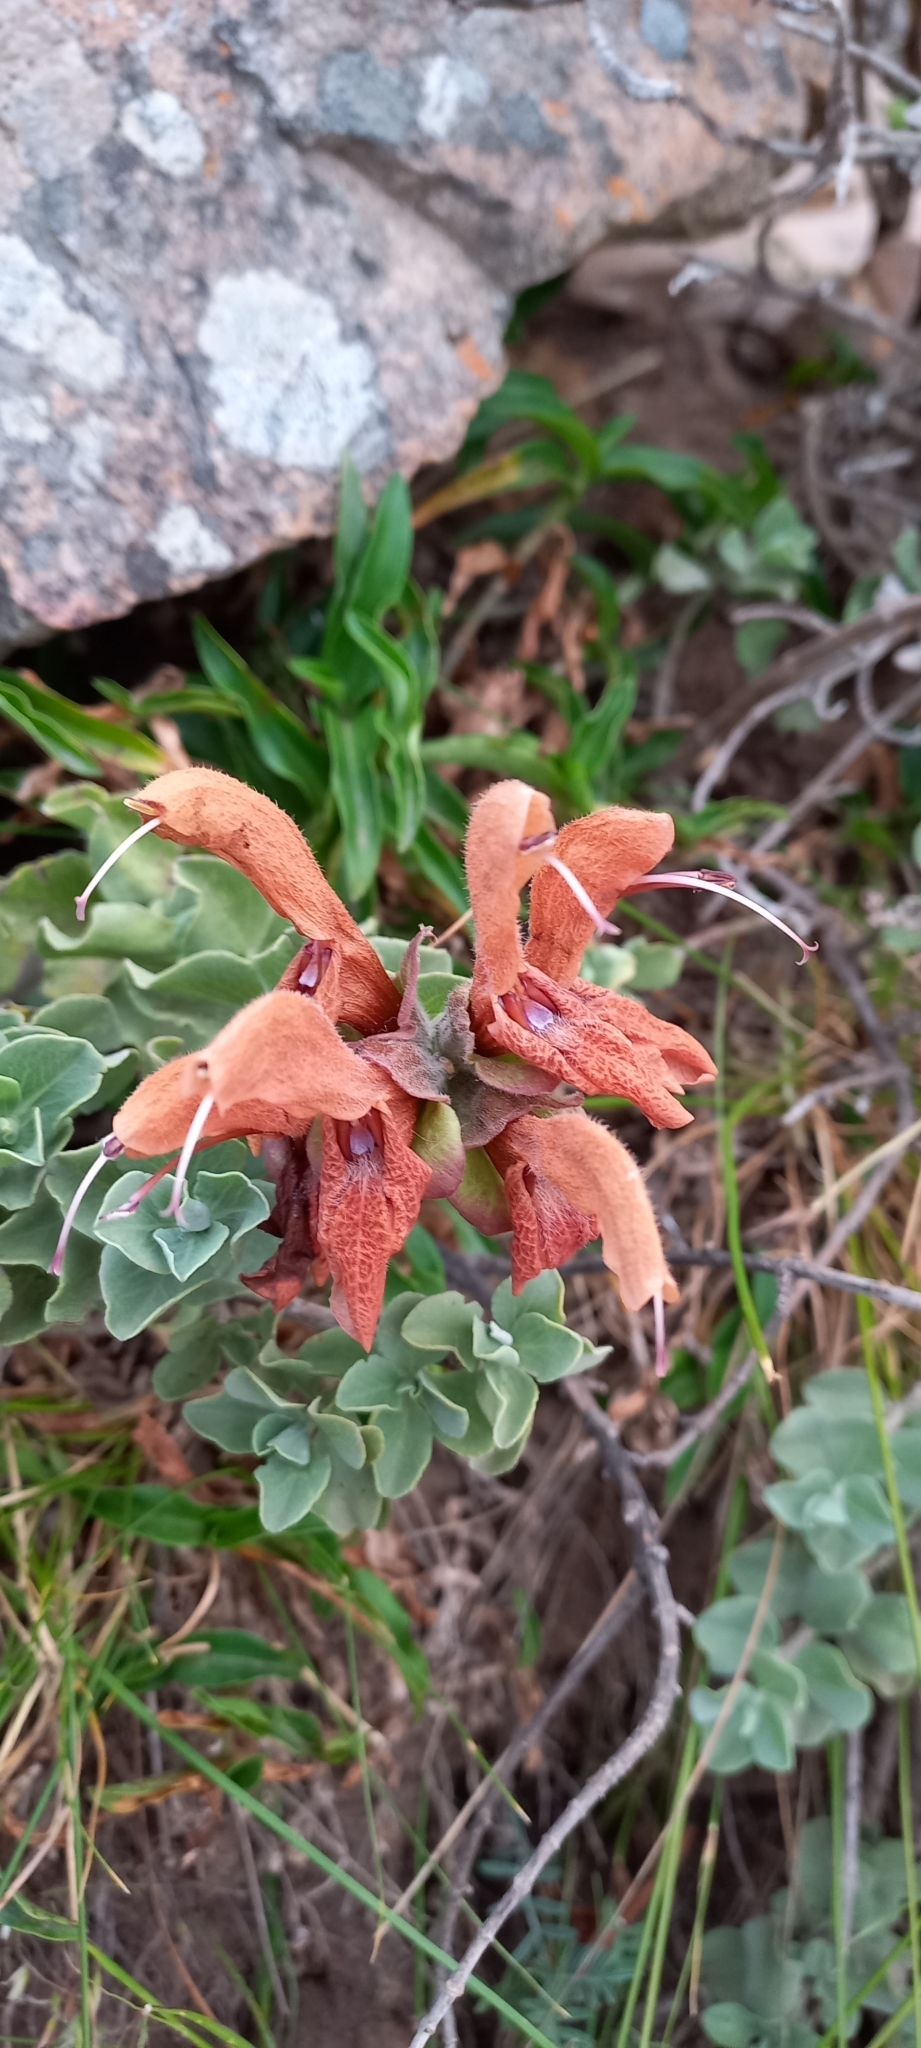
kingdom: Plantae
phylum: Tracheophyta
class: Magnoliopsida
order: Lamiales
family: Lamiaceae
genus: Salvia
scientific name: Salvia aurea
